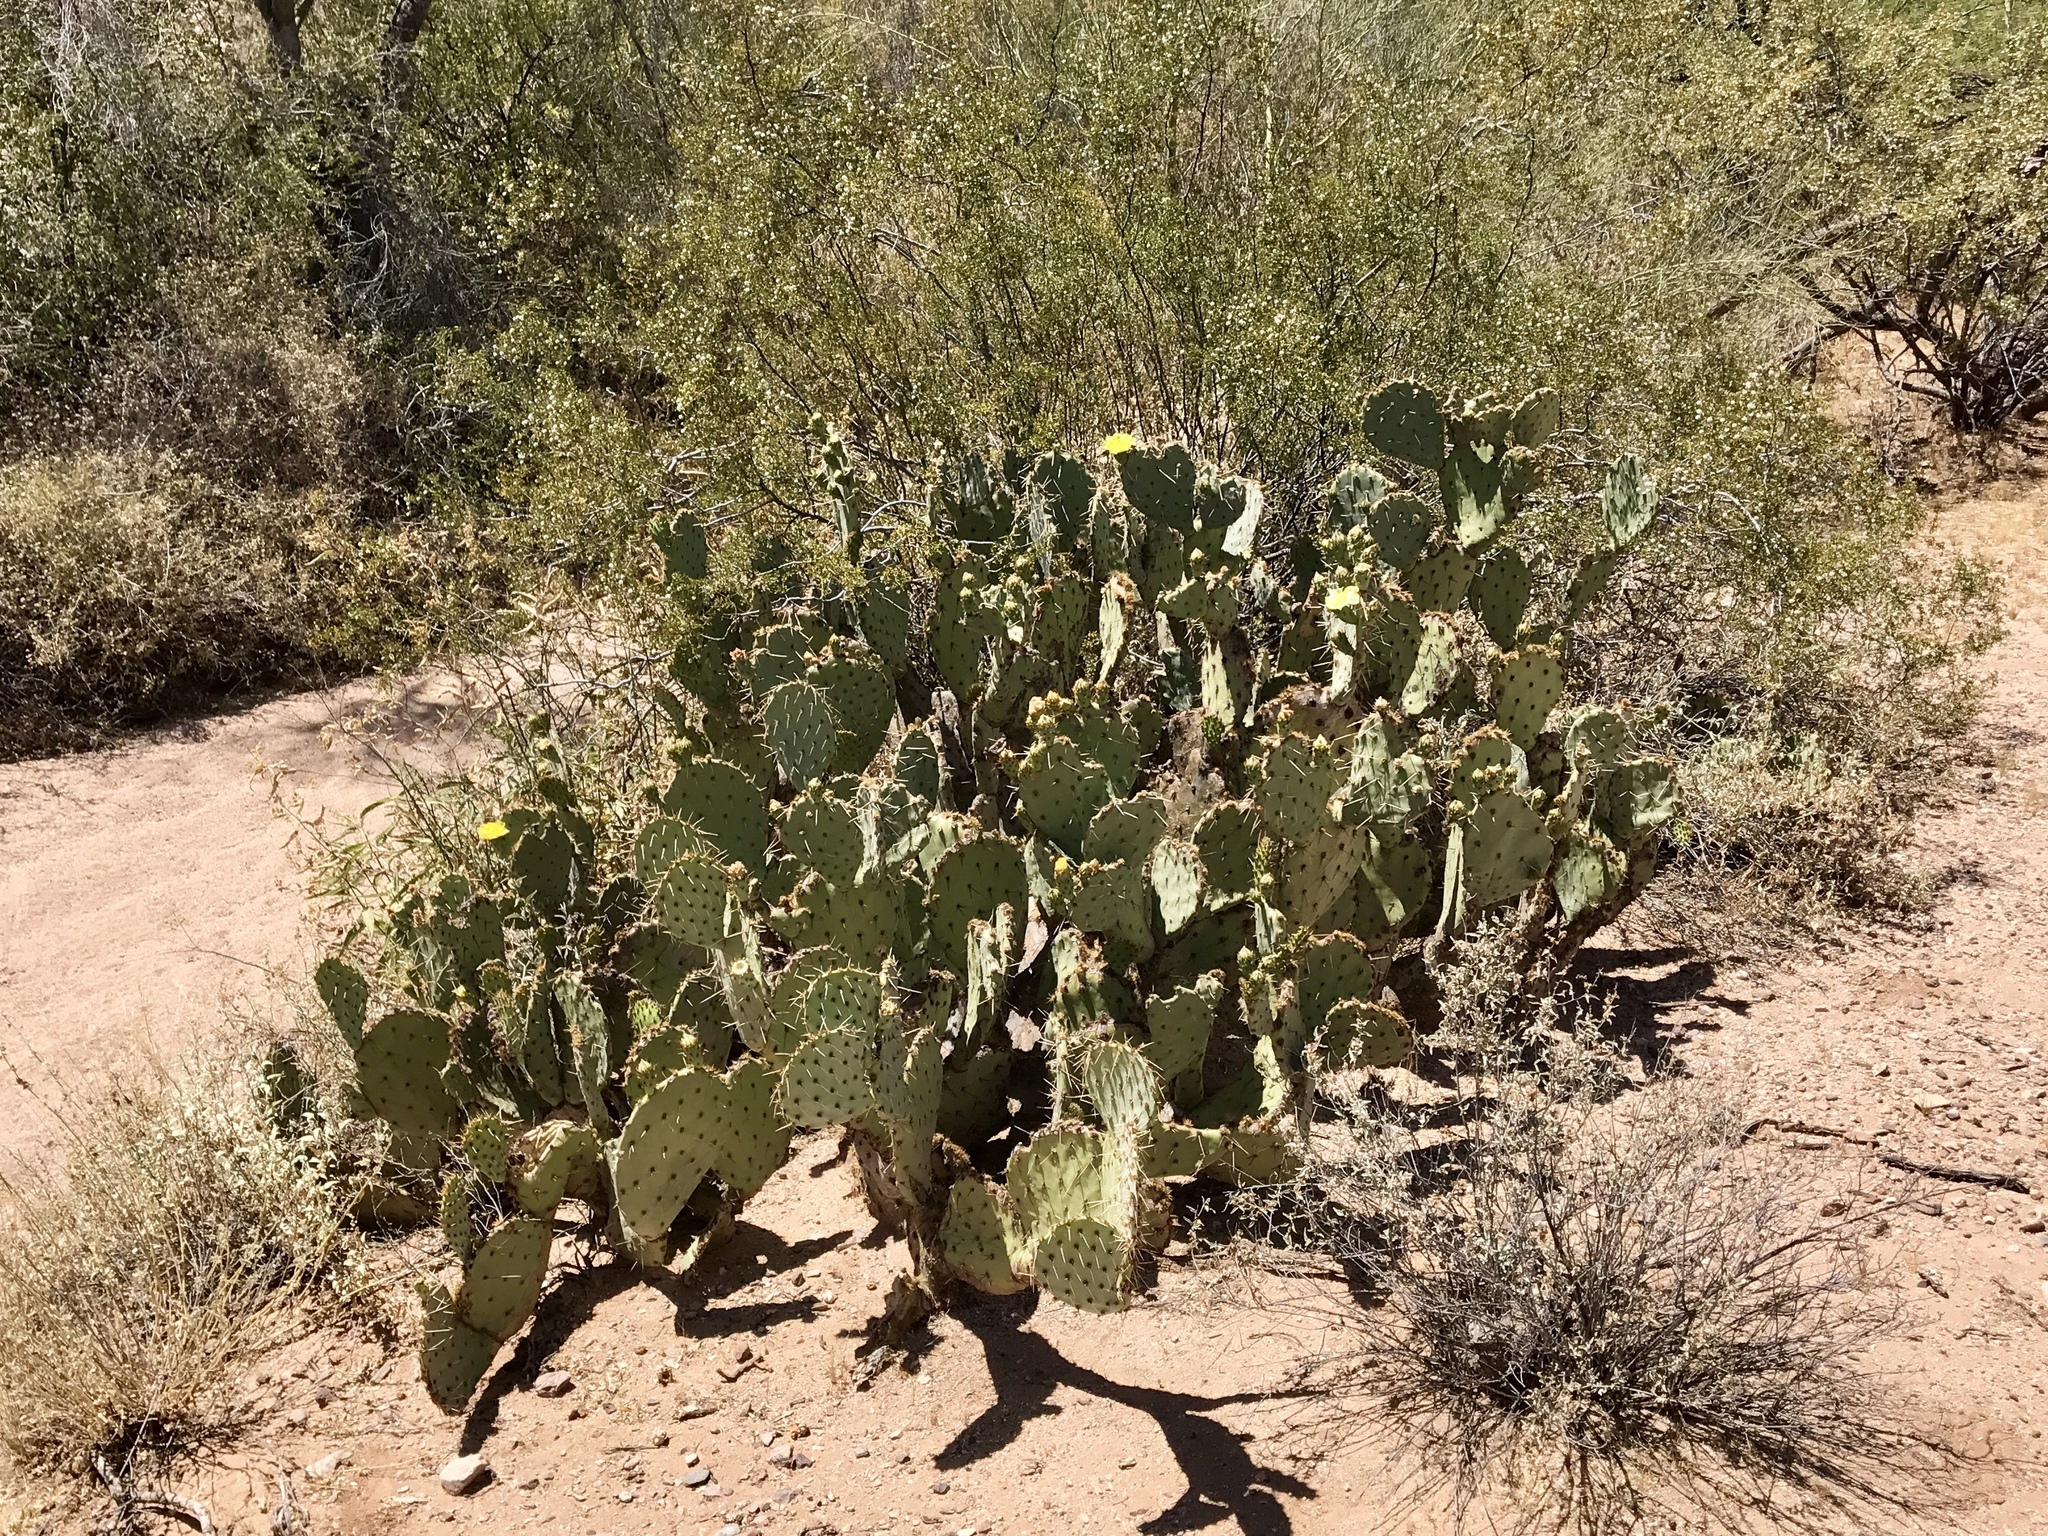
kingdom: Plantae
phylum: Tracheophyta
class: Magnoliopsida
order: Caryophyllales
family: Cactaceae
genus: Opuntia
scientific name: Opuntia engelmannii
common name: Cactus-apple
